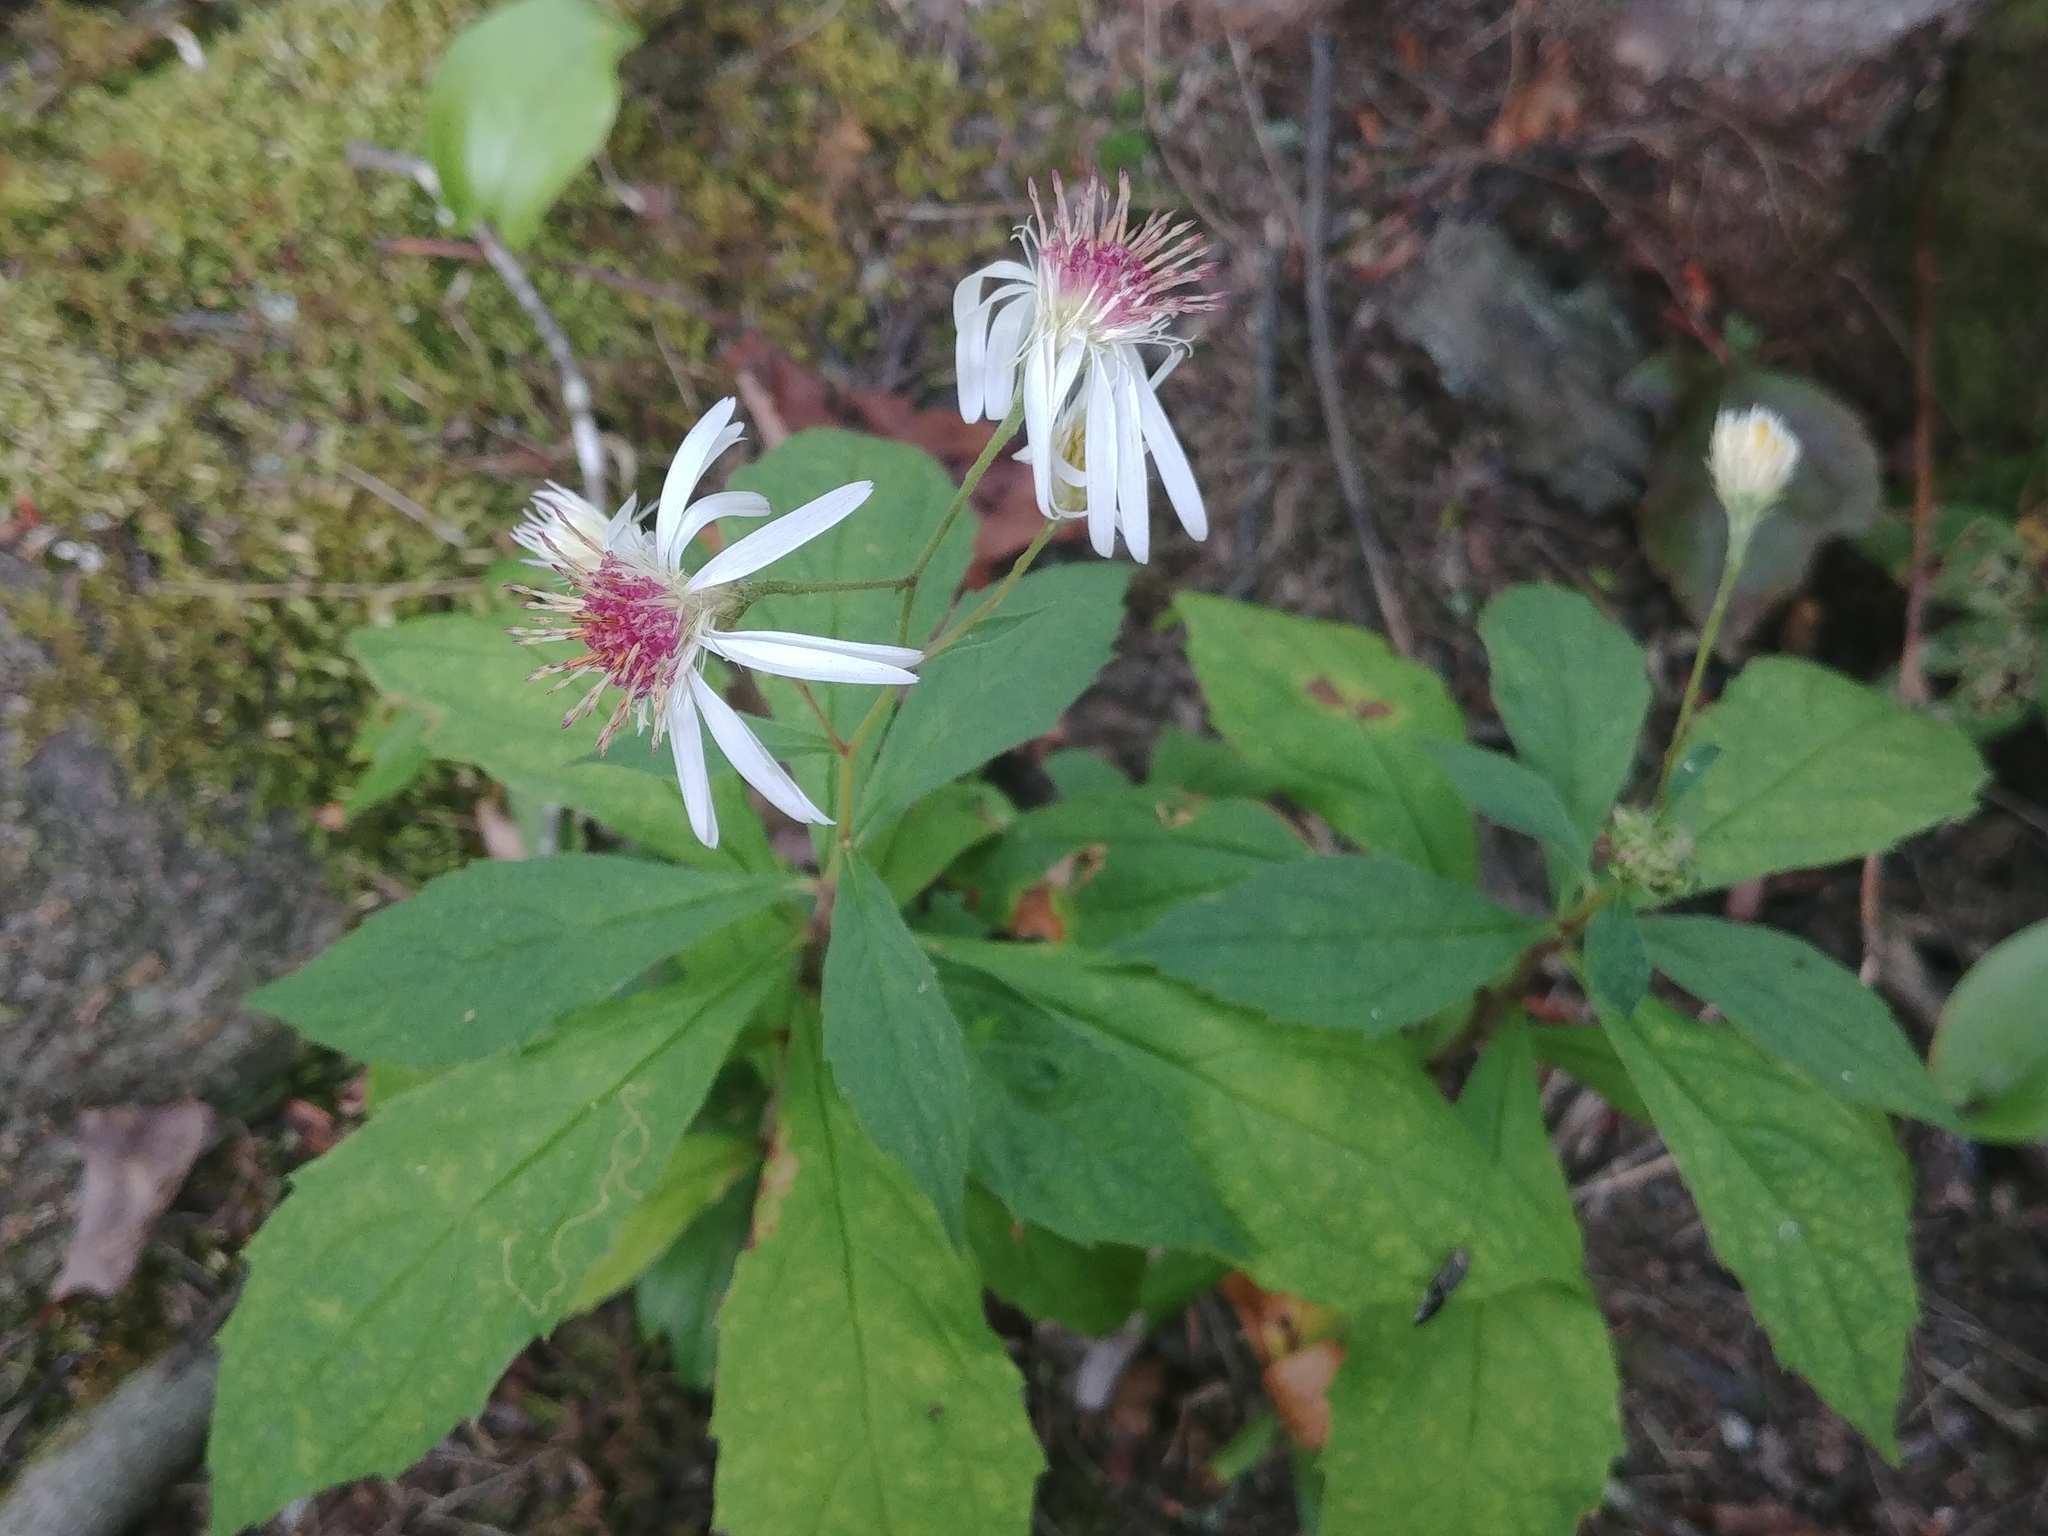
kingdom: Plantae
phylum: Tracheophyta
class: Magnoliopsida
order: Asterales
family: Asteraceae
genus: Oclemena
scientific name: Oclemena acuminata
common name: Mountain aster
